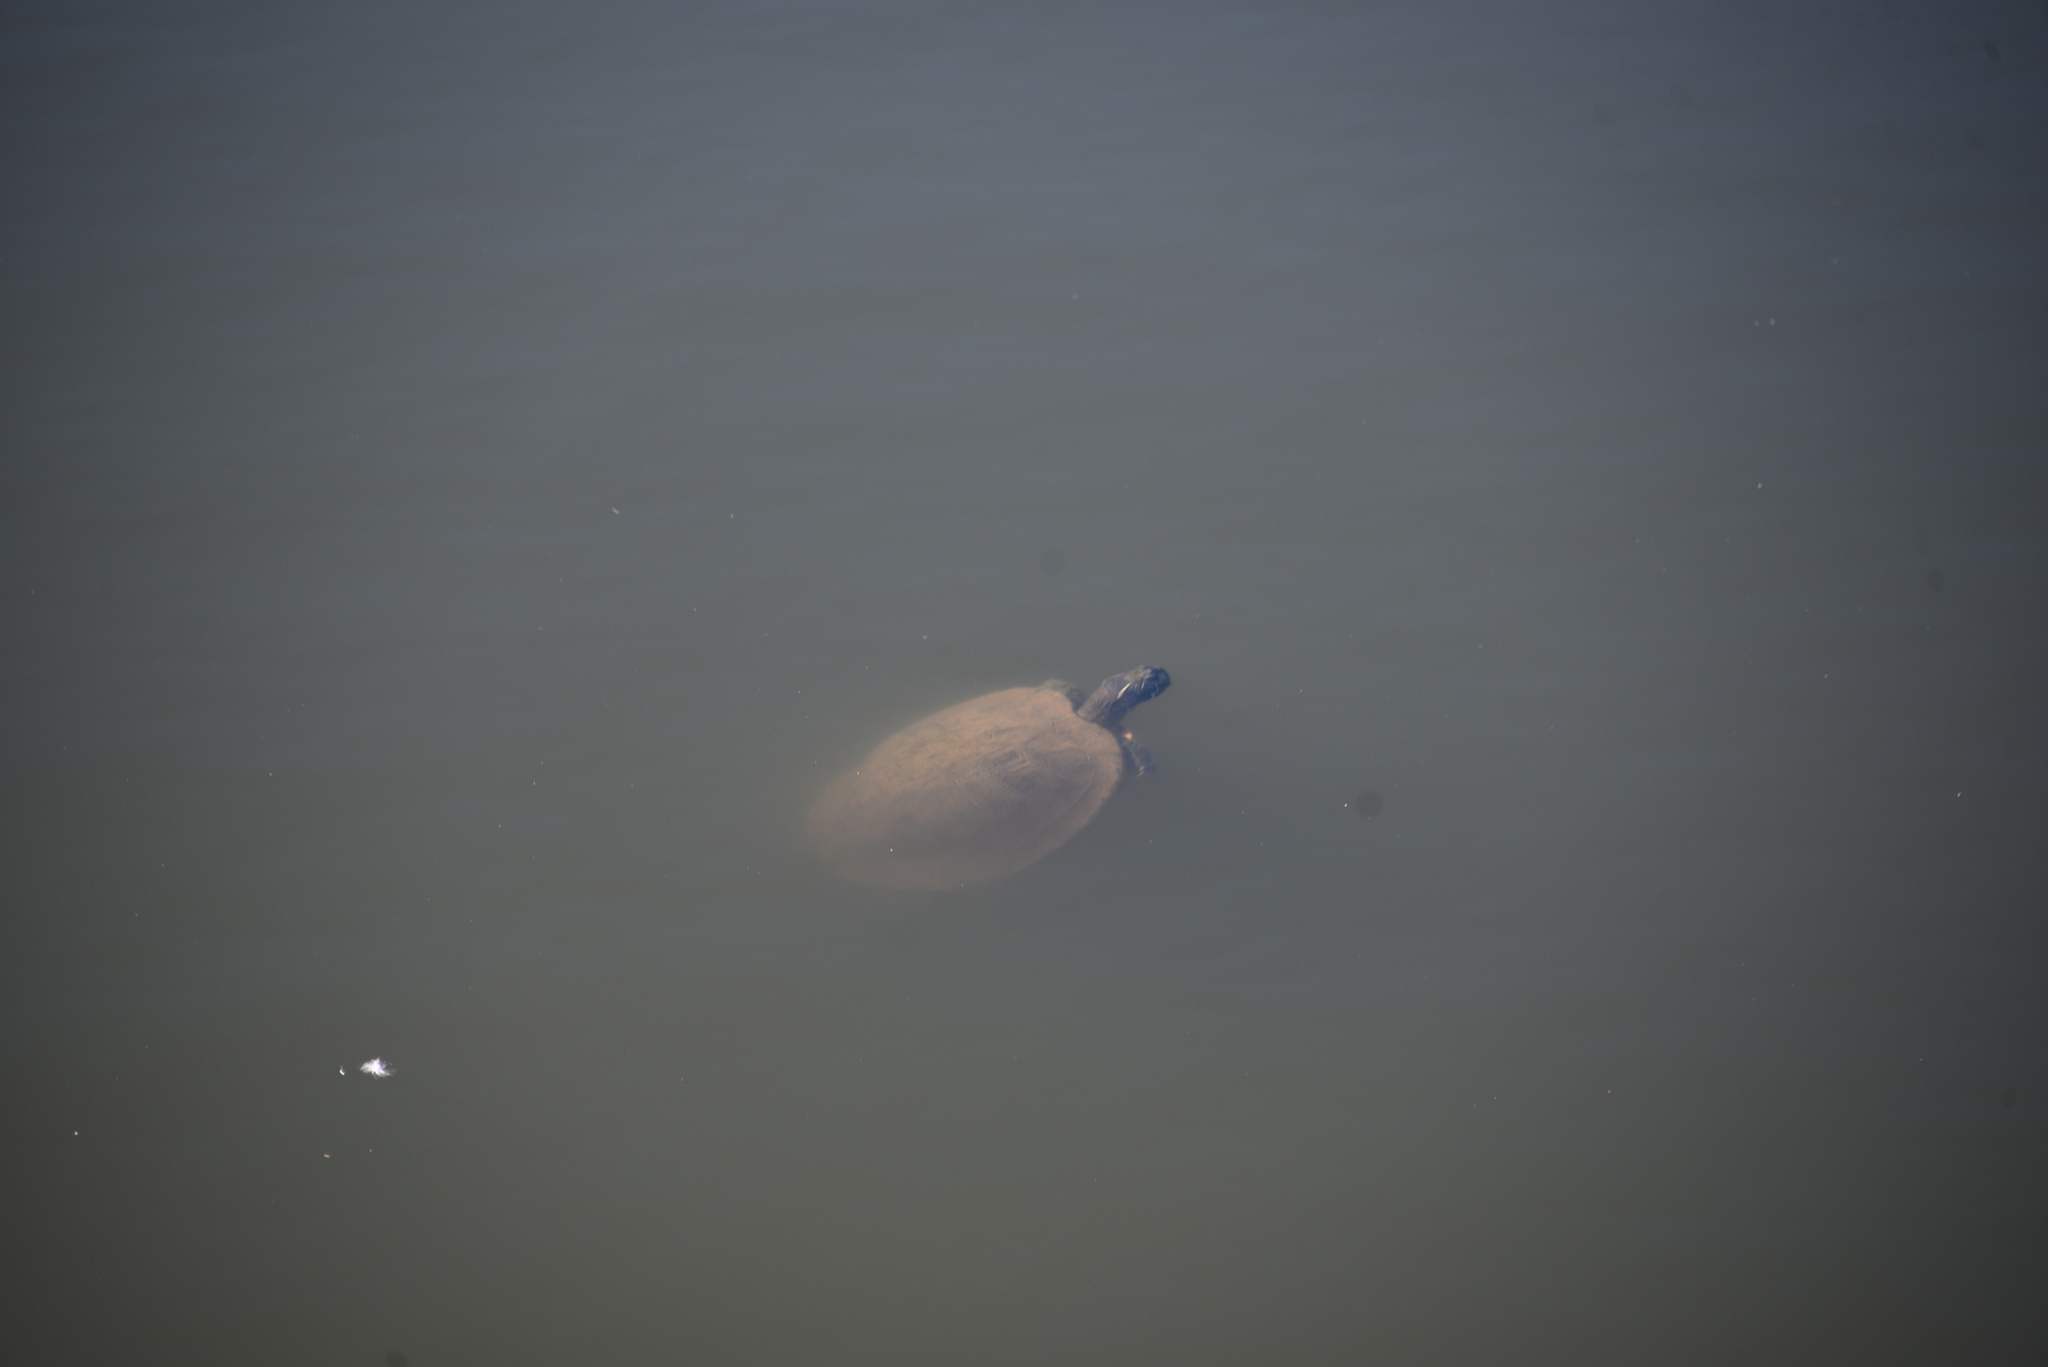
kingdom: Animalia
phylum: Chordata
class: Testudines
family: Emydidae
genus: Pseudemys
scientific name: Pseudemys concinna
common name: Eastern river cooter
